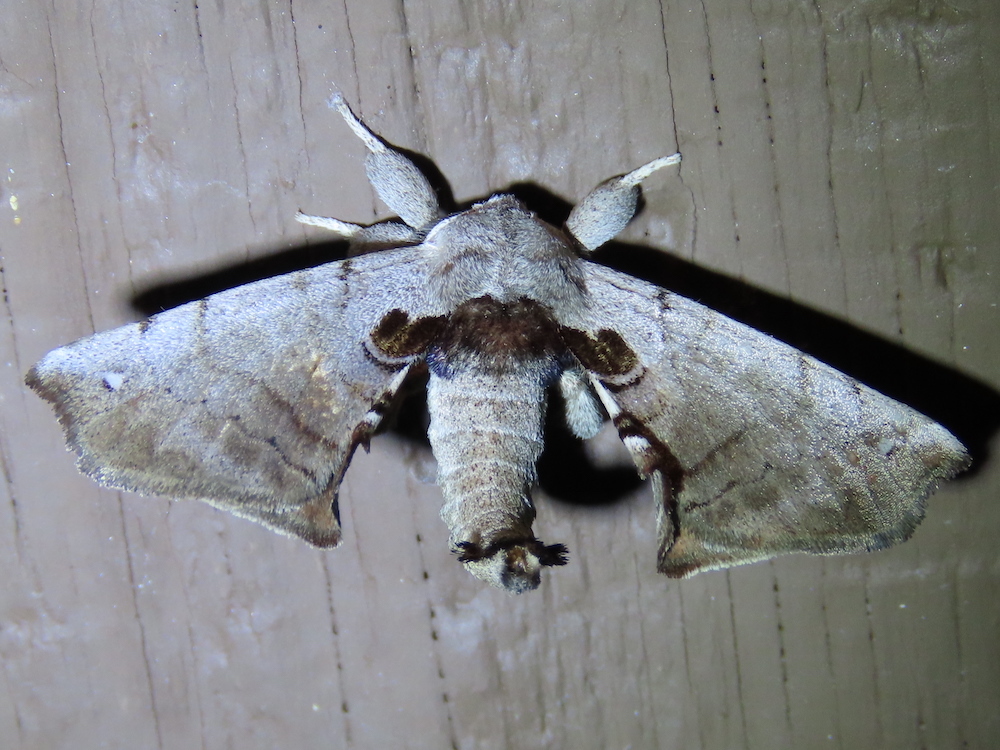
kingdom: Animalia
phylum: Arthropoda
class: Insecta
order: Lepidoptera
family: Apatelodidae
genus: Hygrochroa
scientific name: Hygrochroa Apatelodes torrefacta
